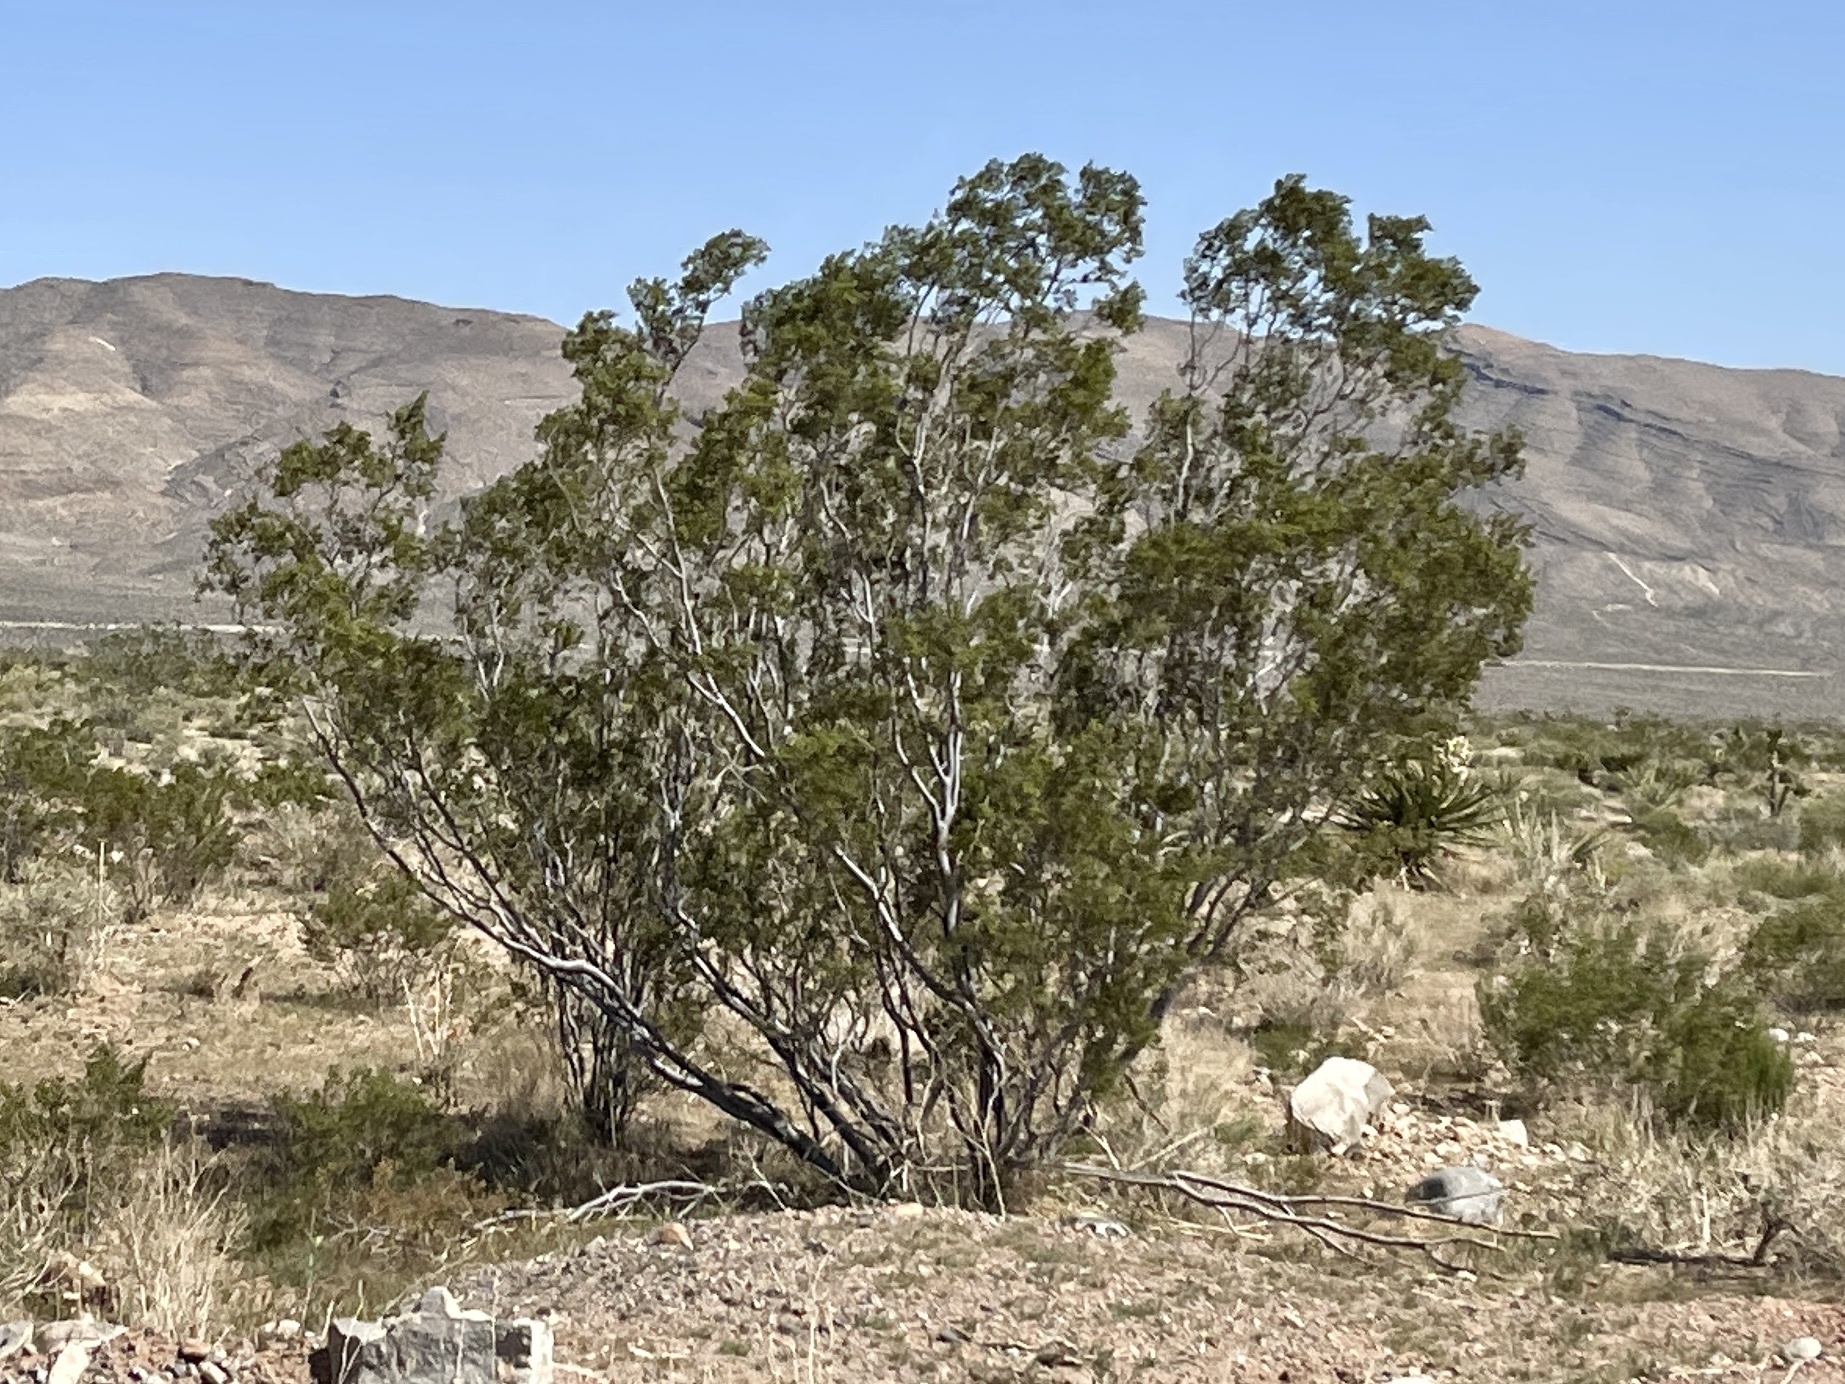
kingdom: Plantae
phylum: Tracheophyta
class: Magnoliopsida
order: Zygophyllales
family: Zygophyllaceae
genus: Larrea
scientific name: Larrea tridentata
